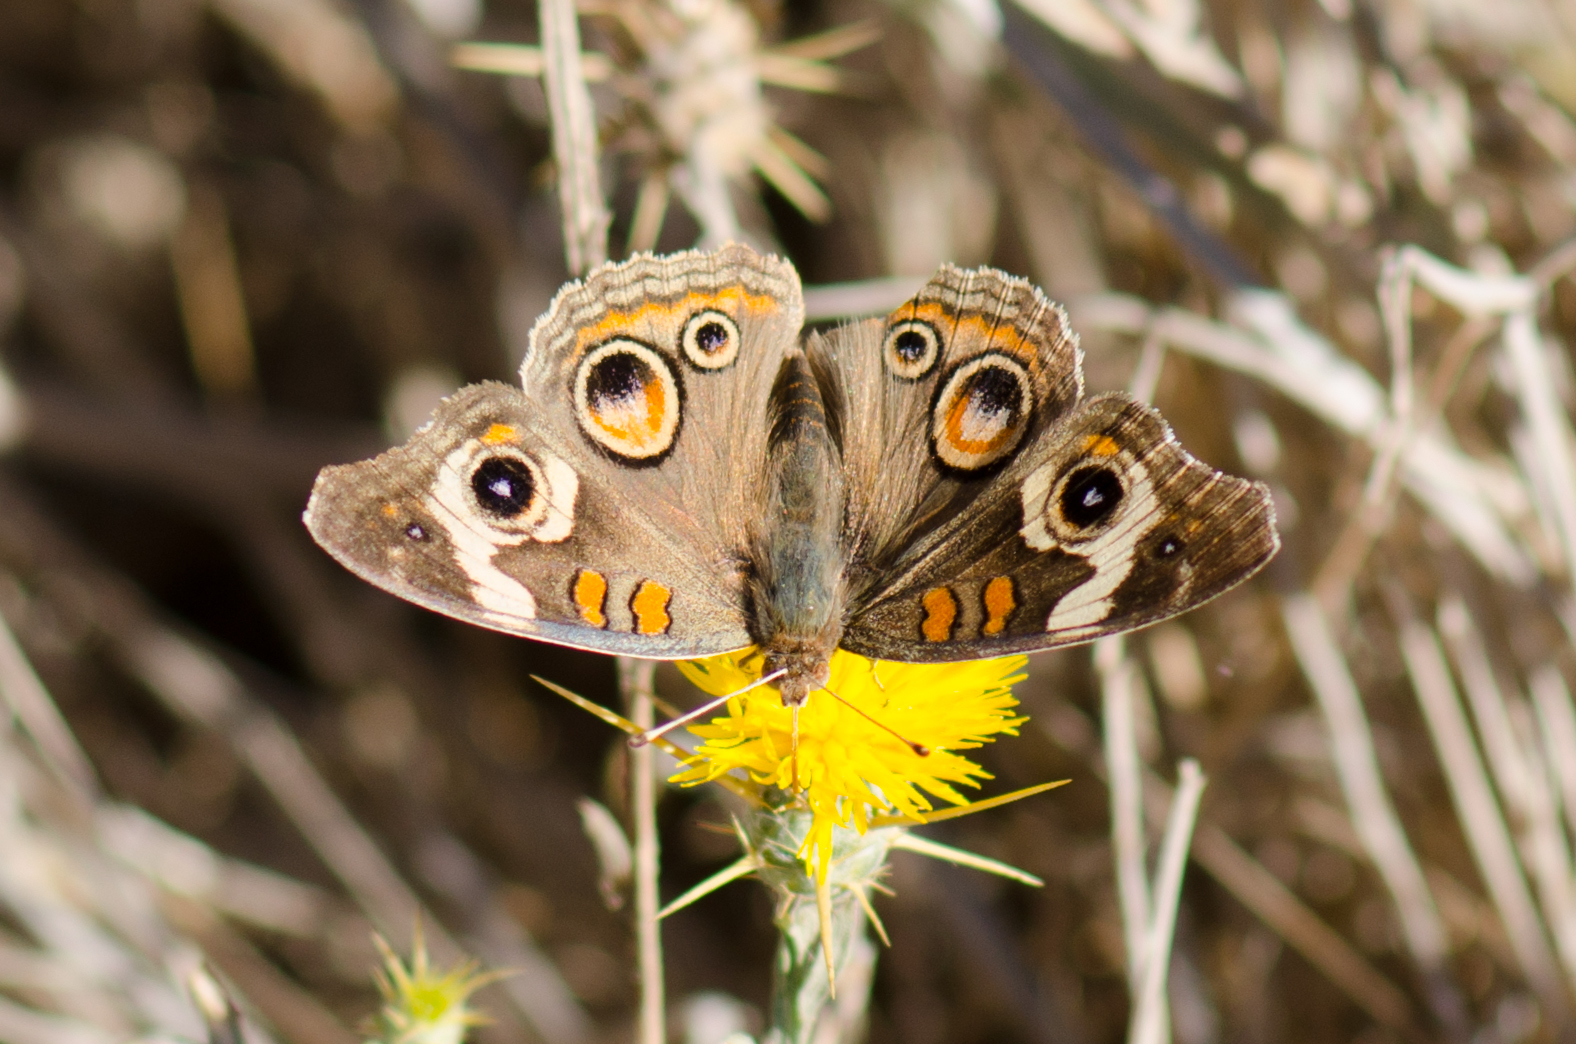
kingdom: Animalia
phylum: Arthropoda
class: Insecta
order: Lepidoptera
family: Nymphalidae
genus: Junonia
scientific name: Junonia grisea
